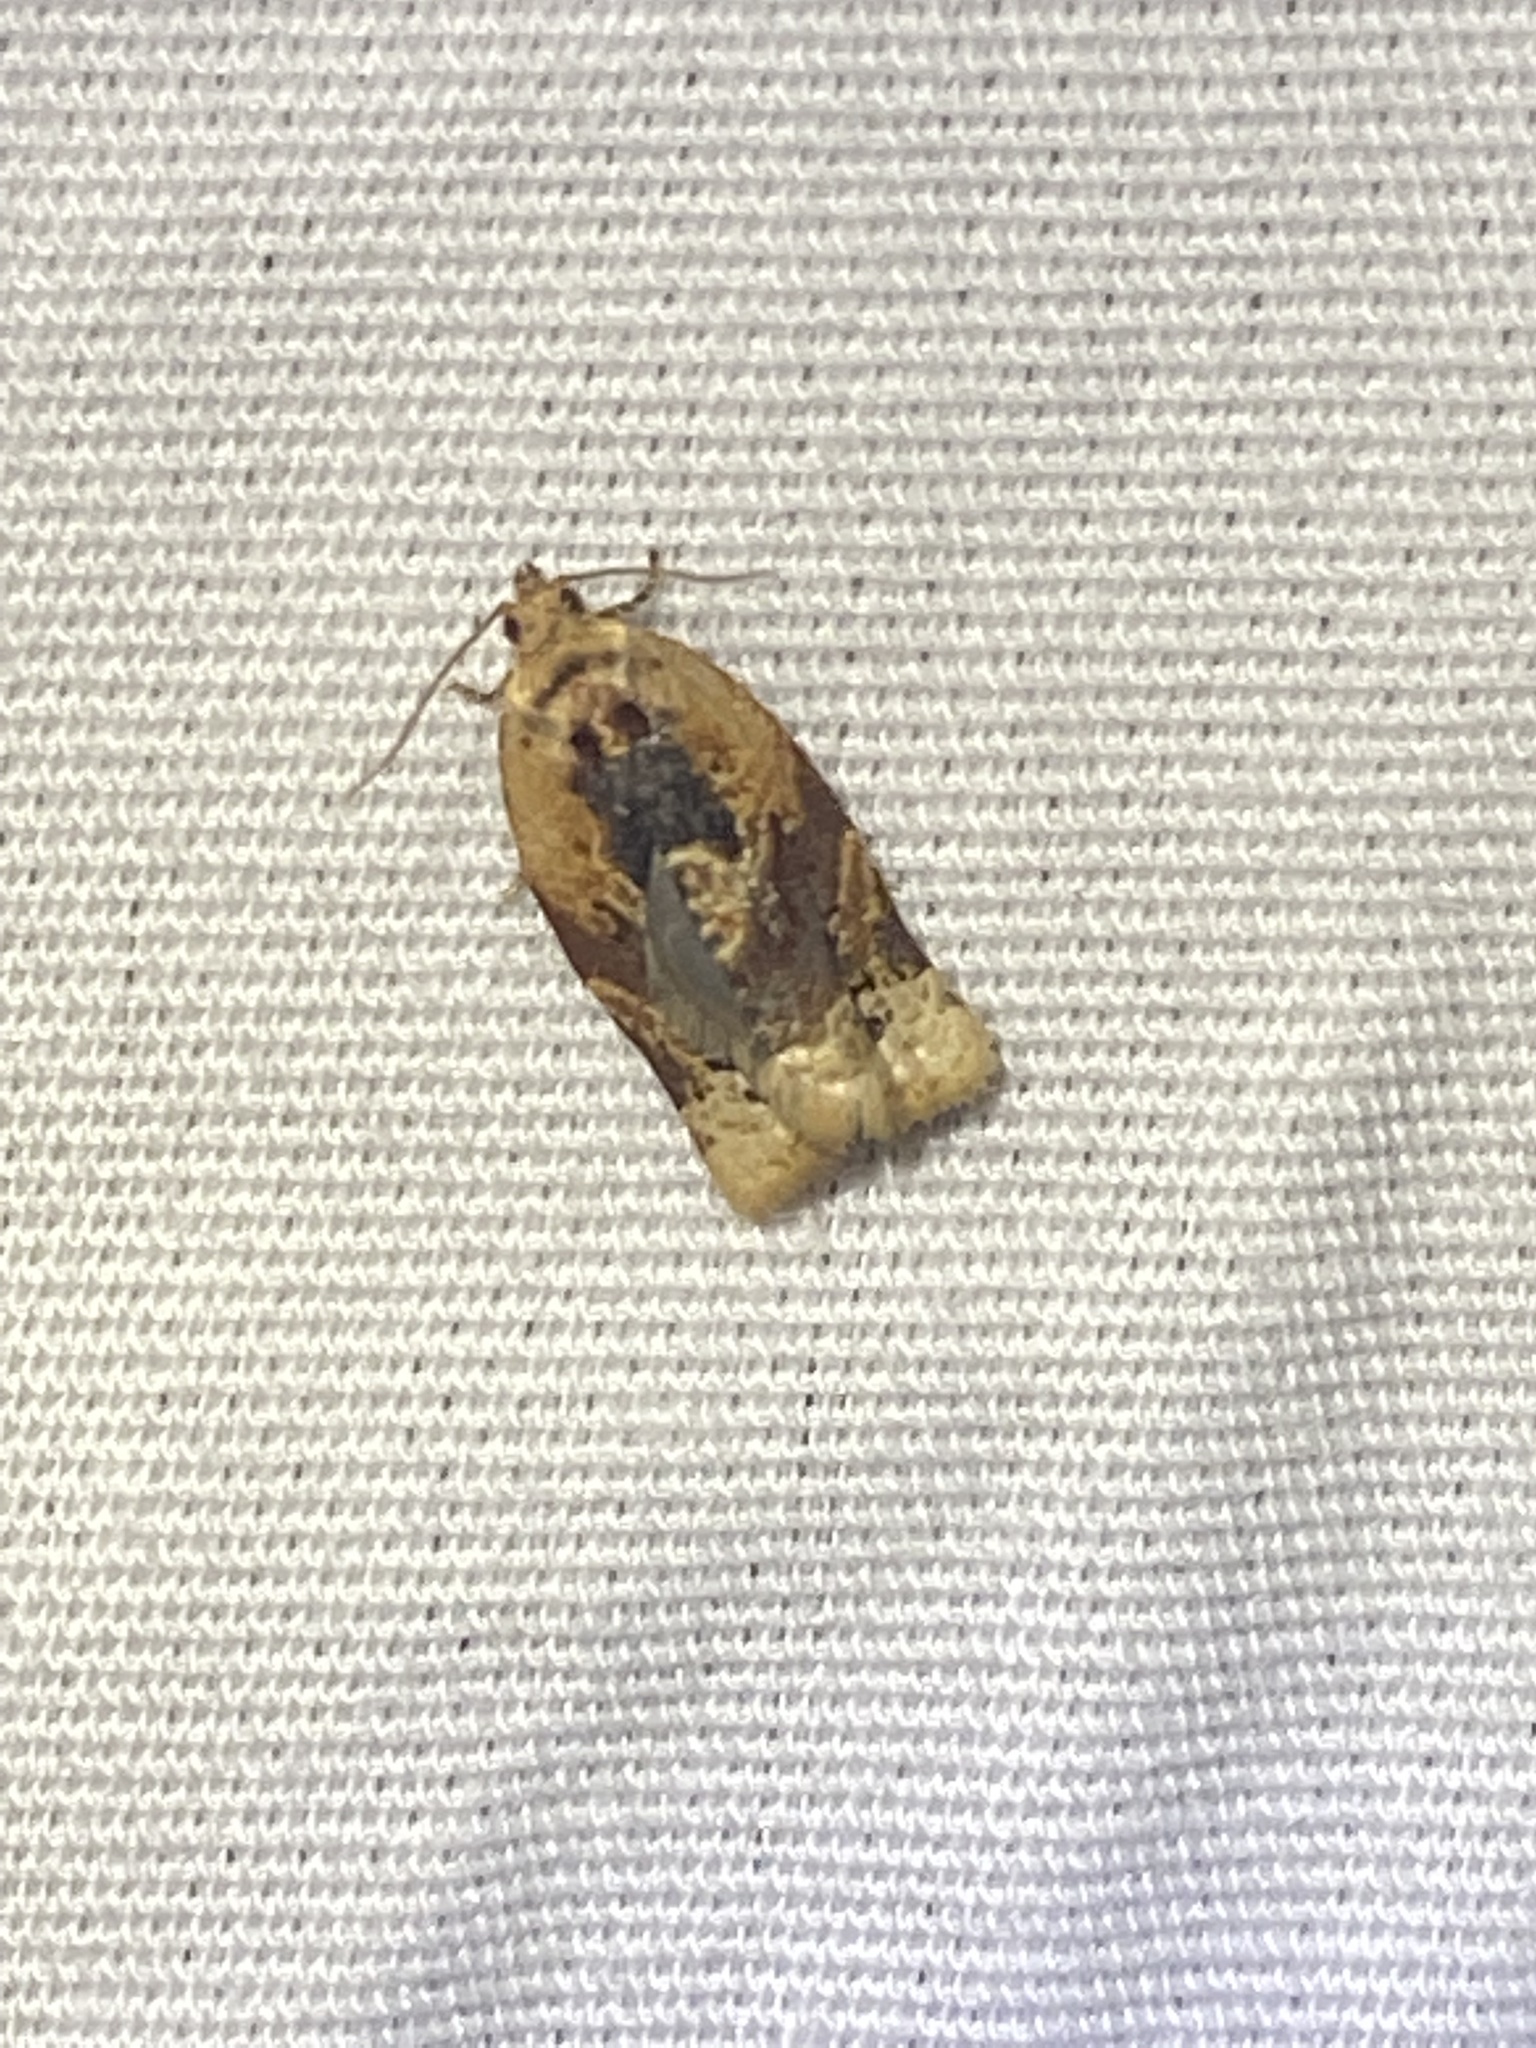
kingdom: Animalia
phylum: Arthropoda
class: Insecta
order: Lepidoptera
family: Tortricidae
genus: Argyrotaenia
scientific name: Argyrotaenia velutinana
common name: Red-banded leafroller moth
